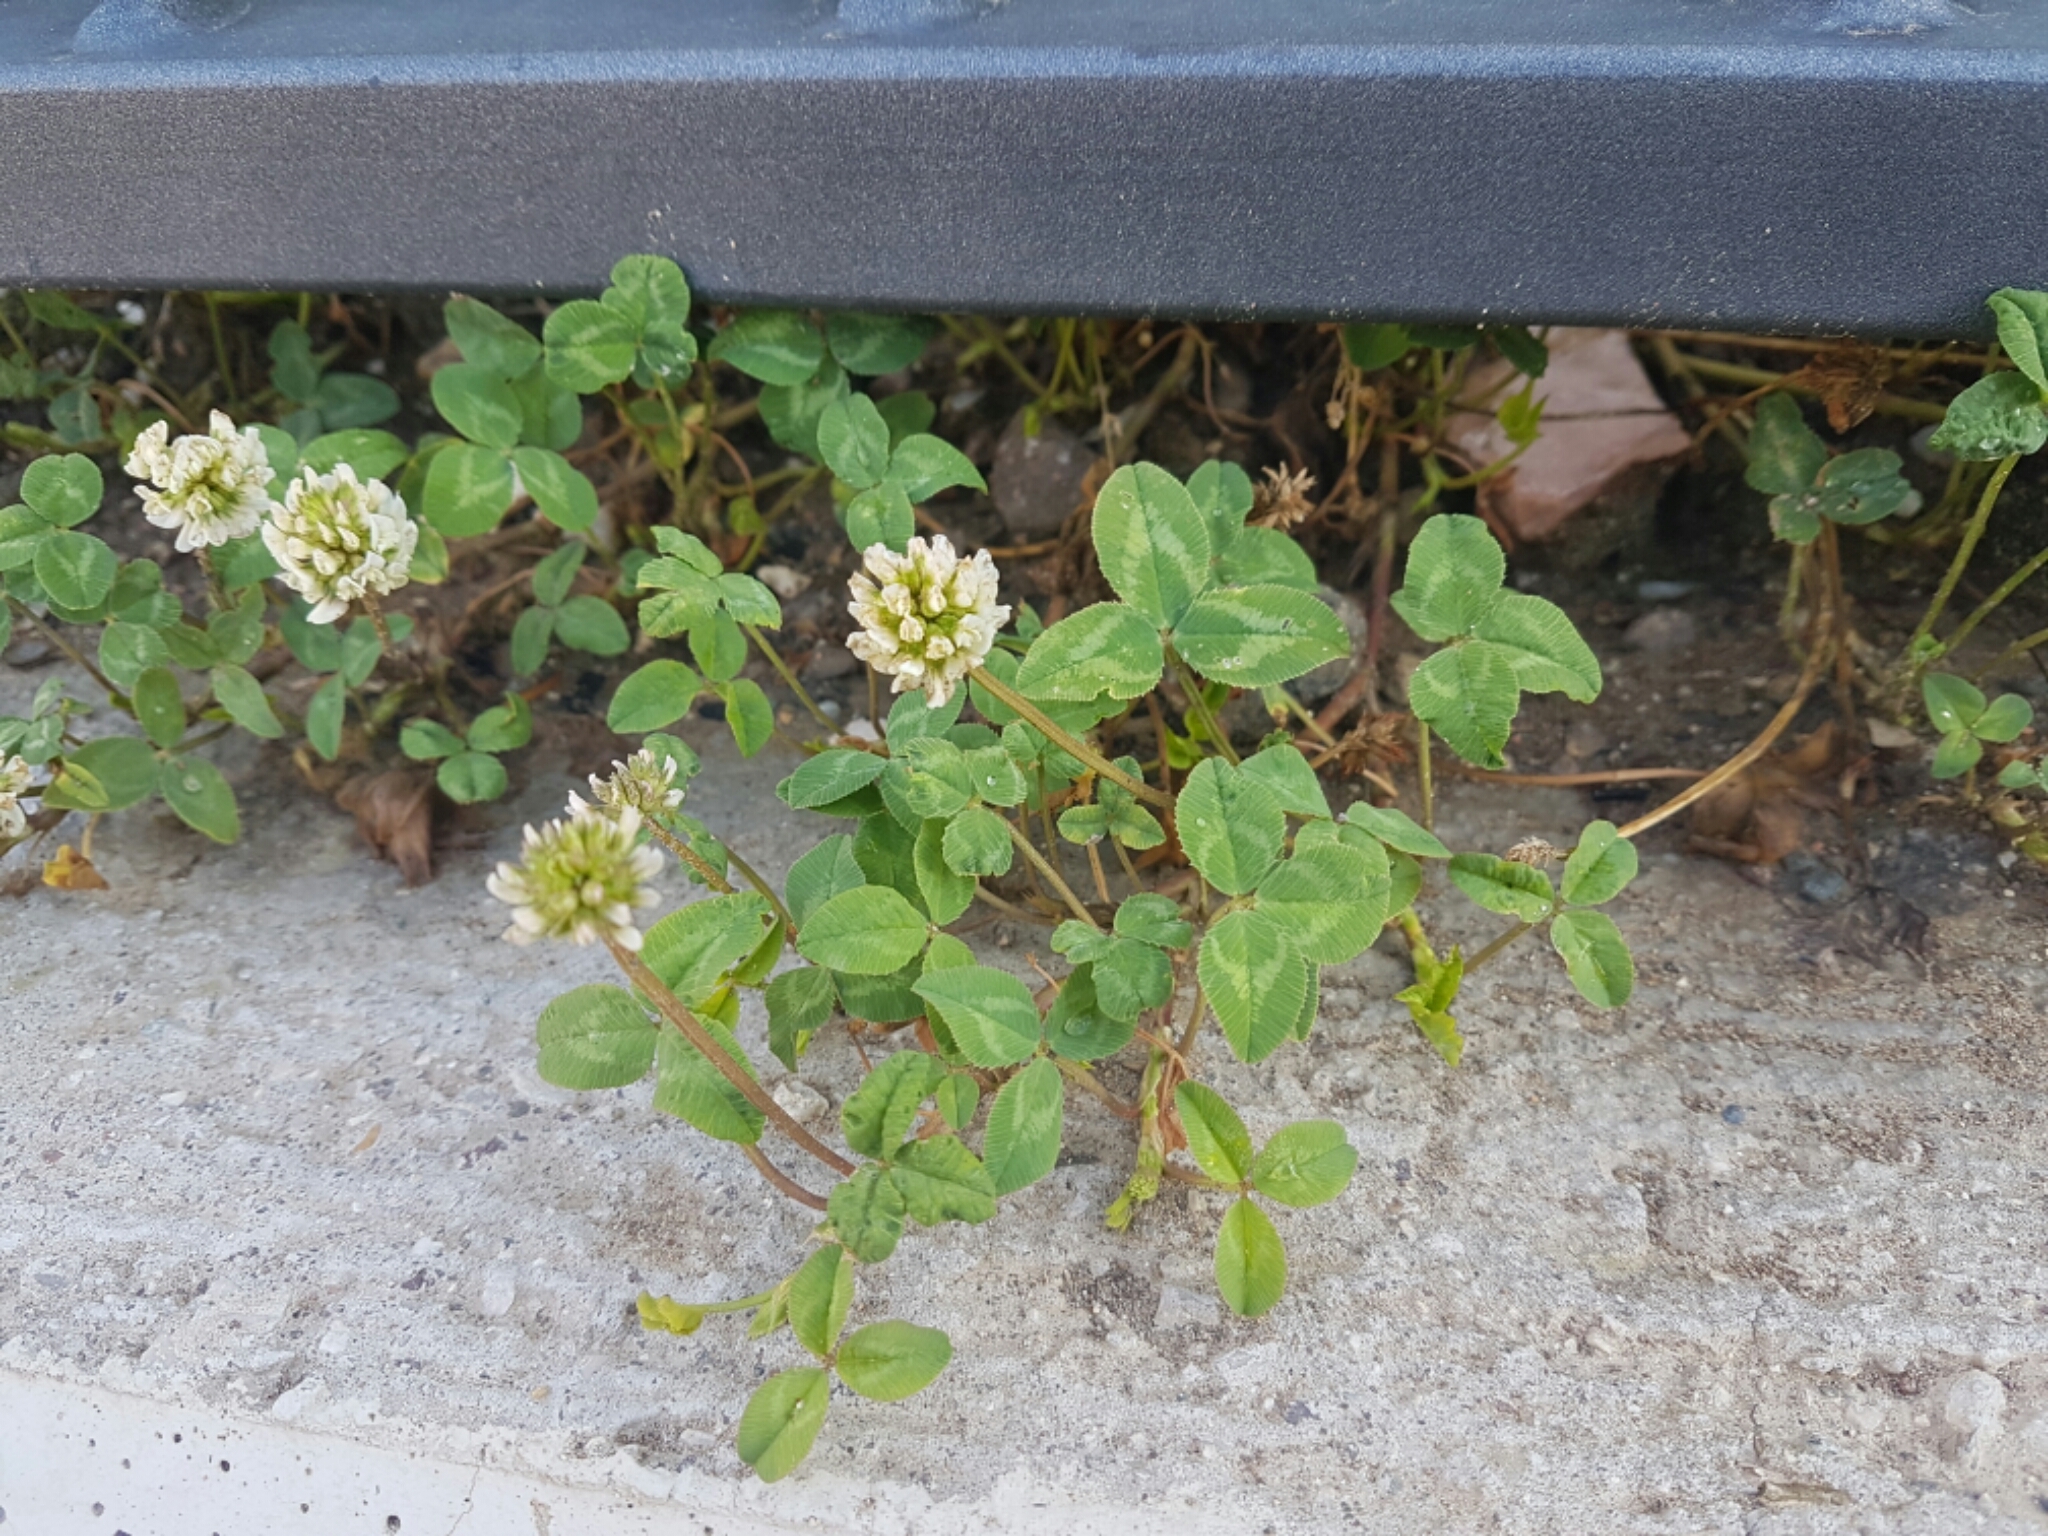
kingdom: Plantae
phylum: Tracheophyta
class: Magnoliopsida
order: Fabales
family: Fabaceae
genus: Trifolium
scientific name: Trifolium repens
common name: White clover
